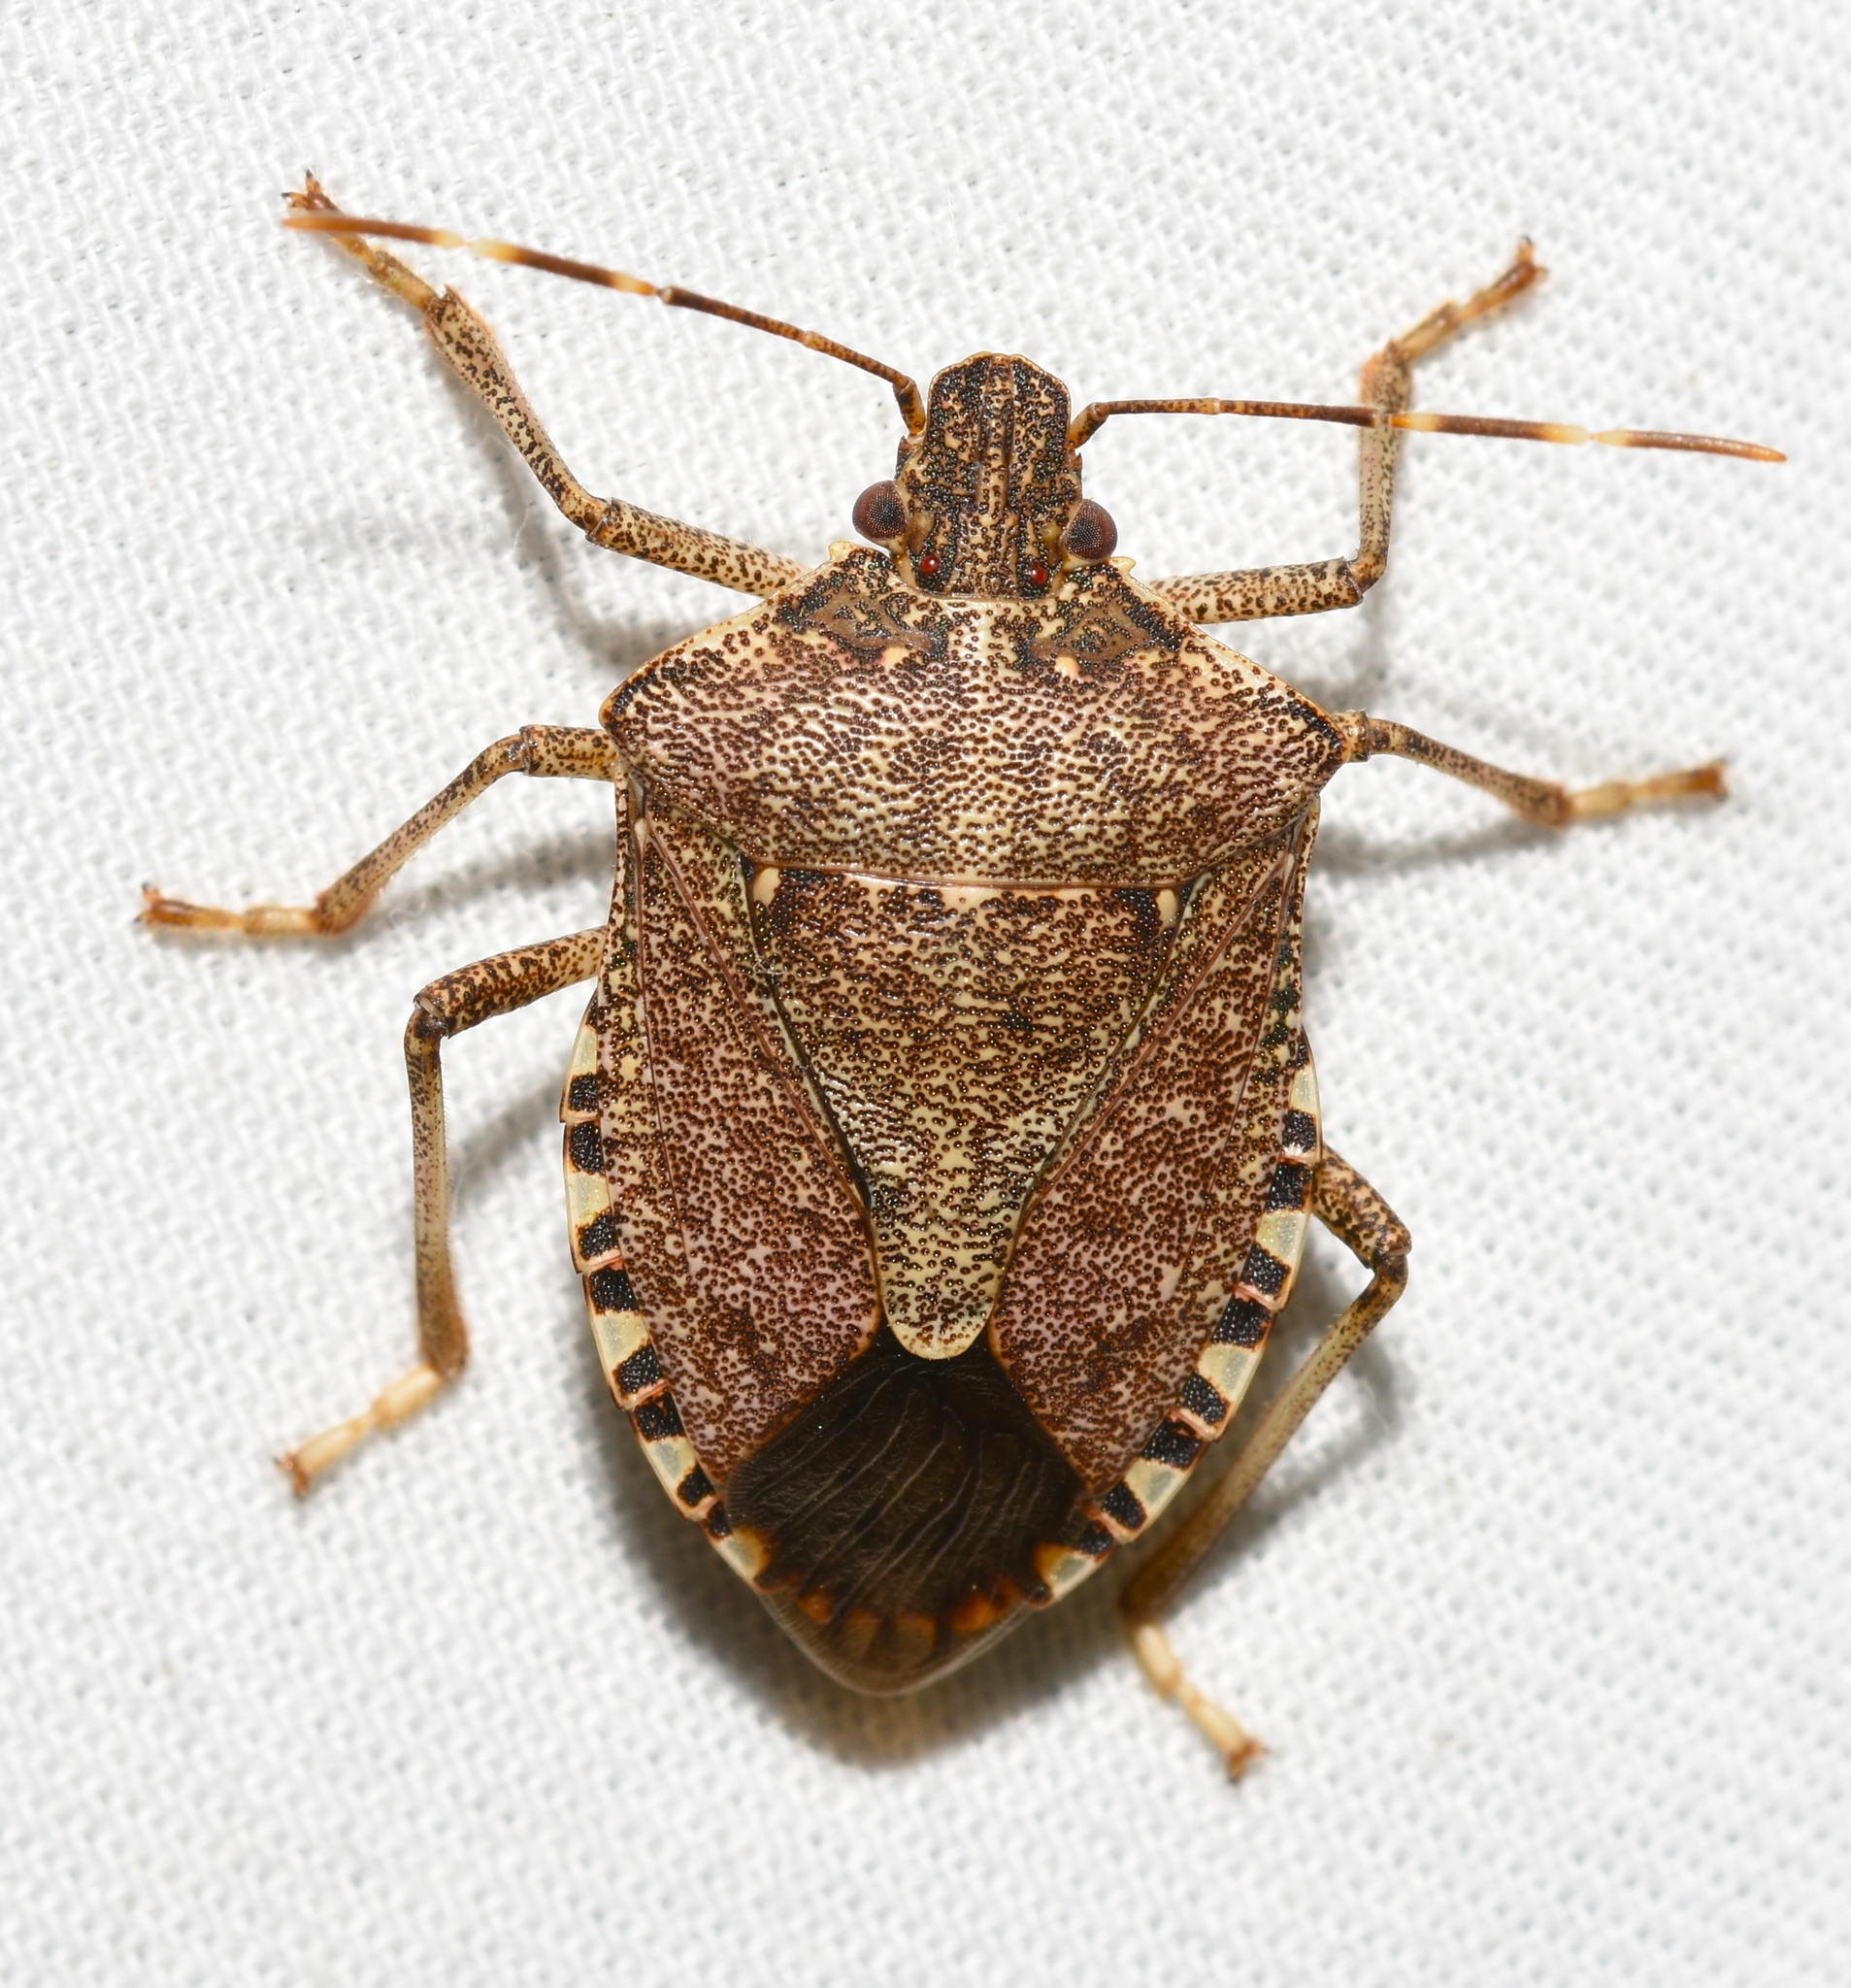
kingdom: Animalia
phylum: Arthropoda
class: Insecta
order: Hemiptera
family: Pentatomidae
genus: Halyomorpha
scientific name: Halyomorpha halys
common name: Brown marmorated stink bug
